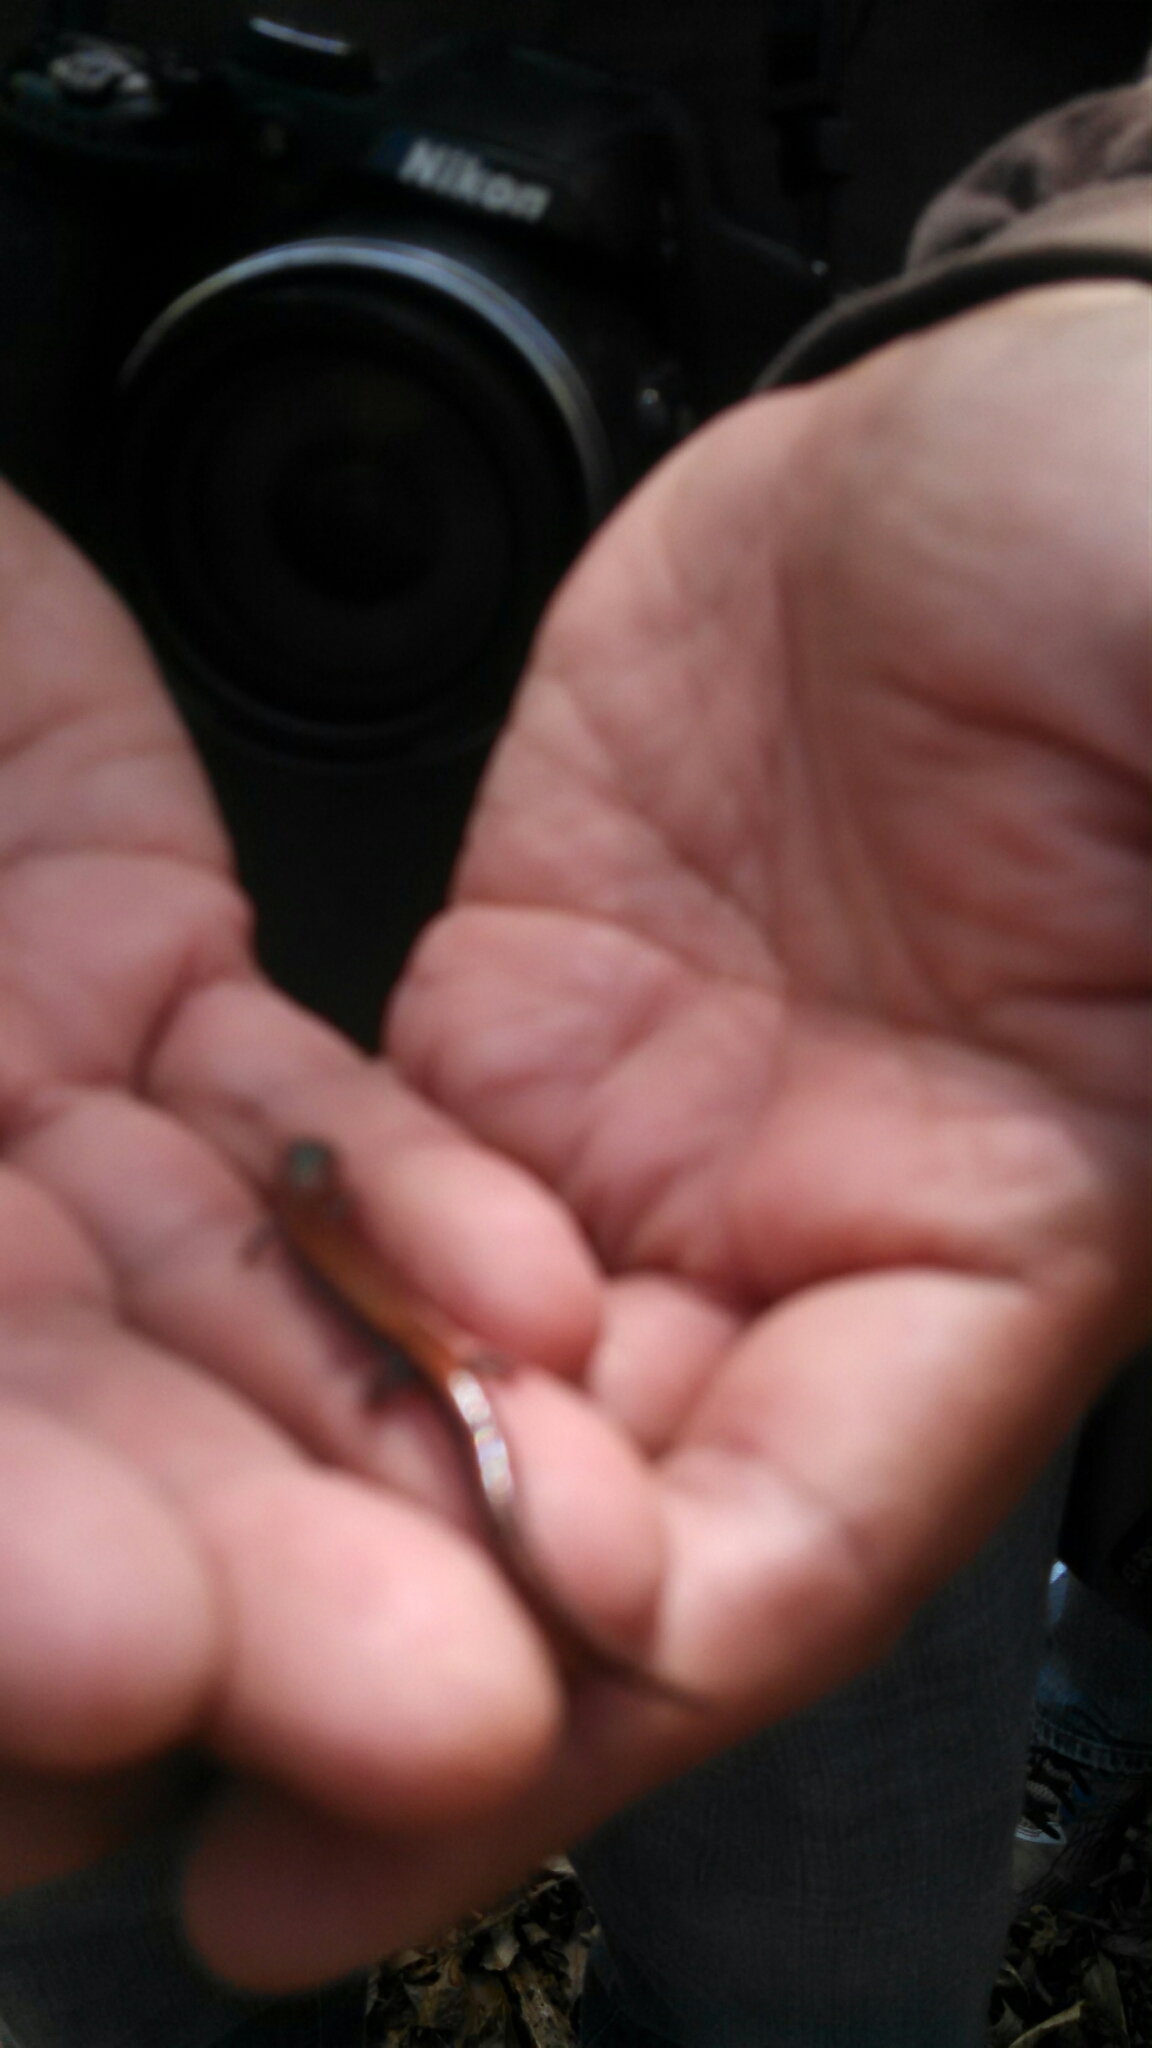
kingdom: Animalia
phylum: Chordata
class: Amphibia
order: Caudata
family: Plethodontidae
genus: Plethodon
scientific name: Plethodon cinereus
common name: Redback salamander
